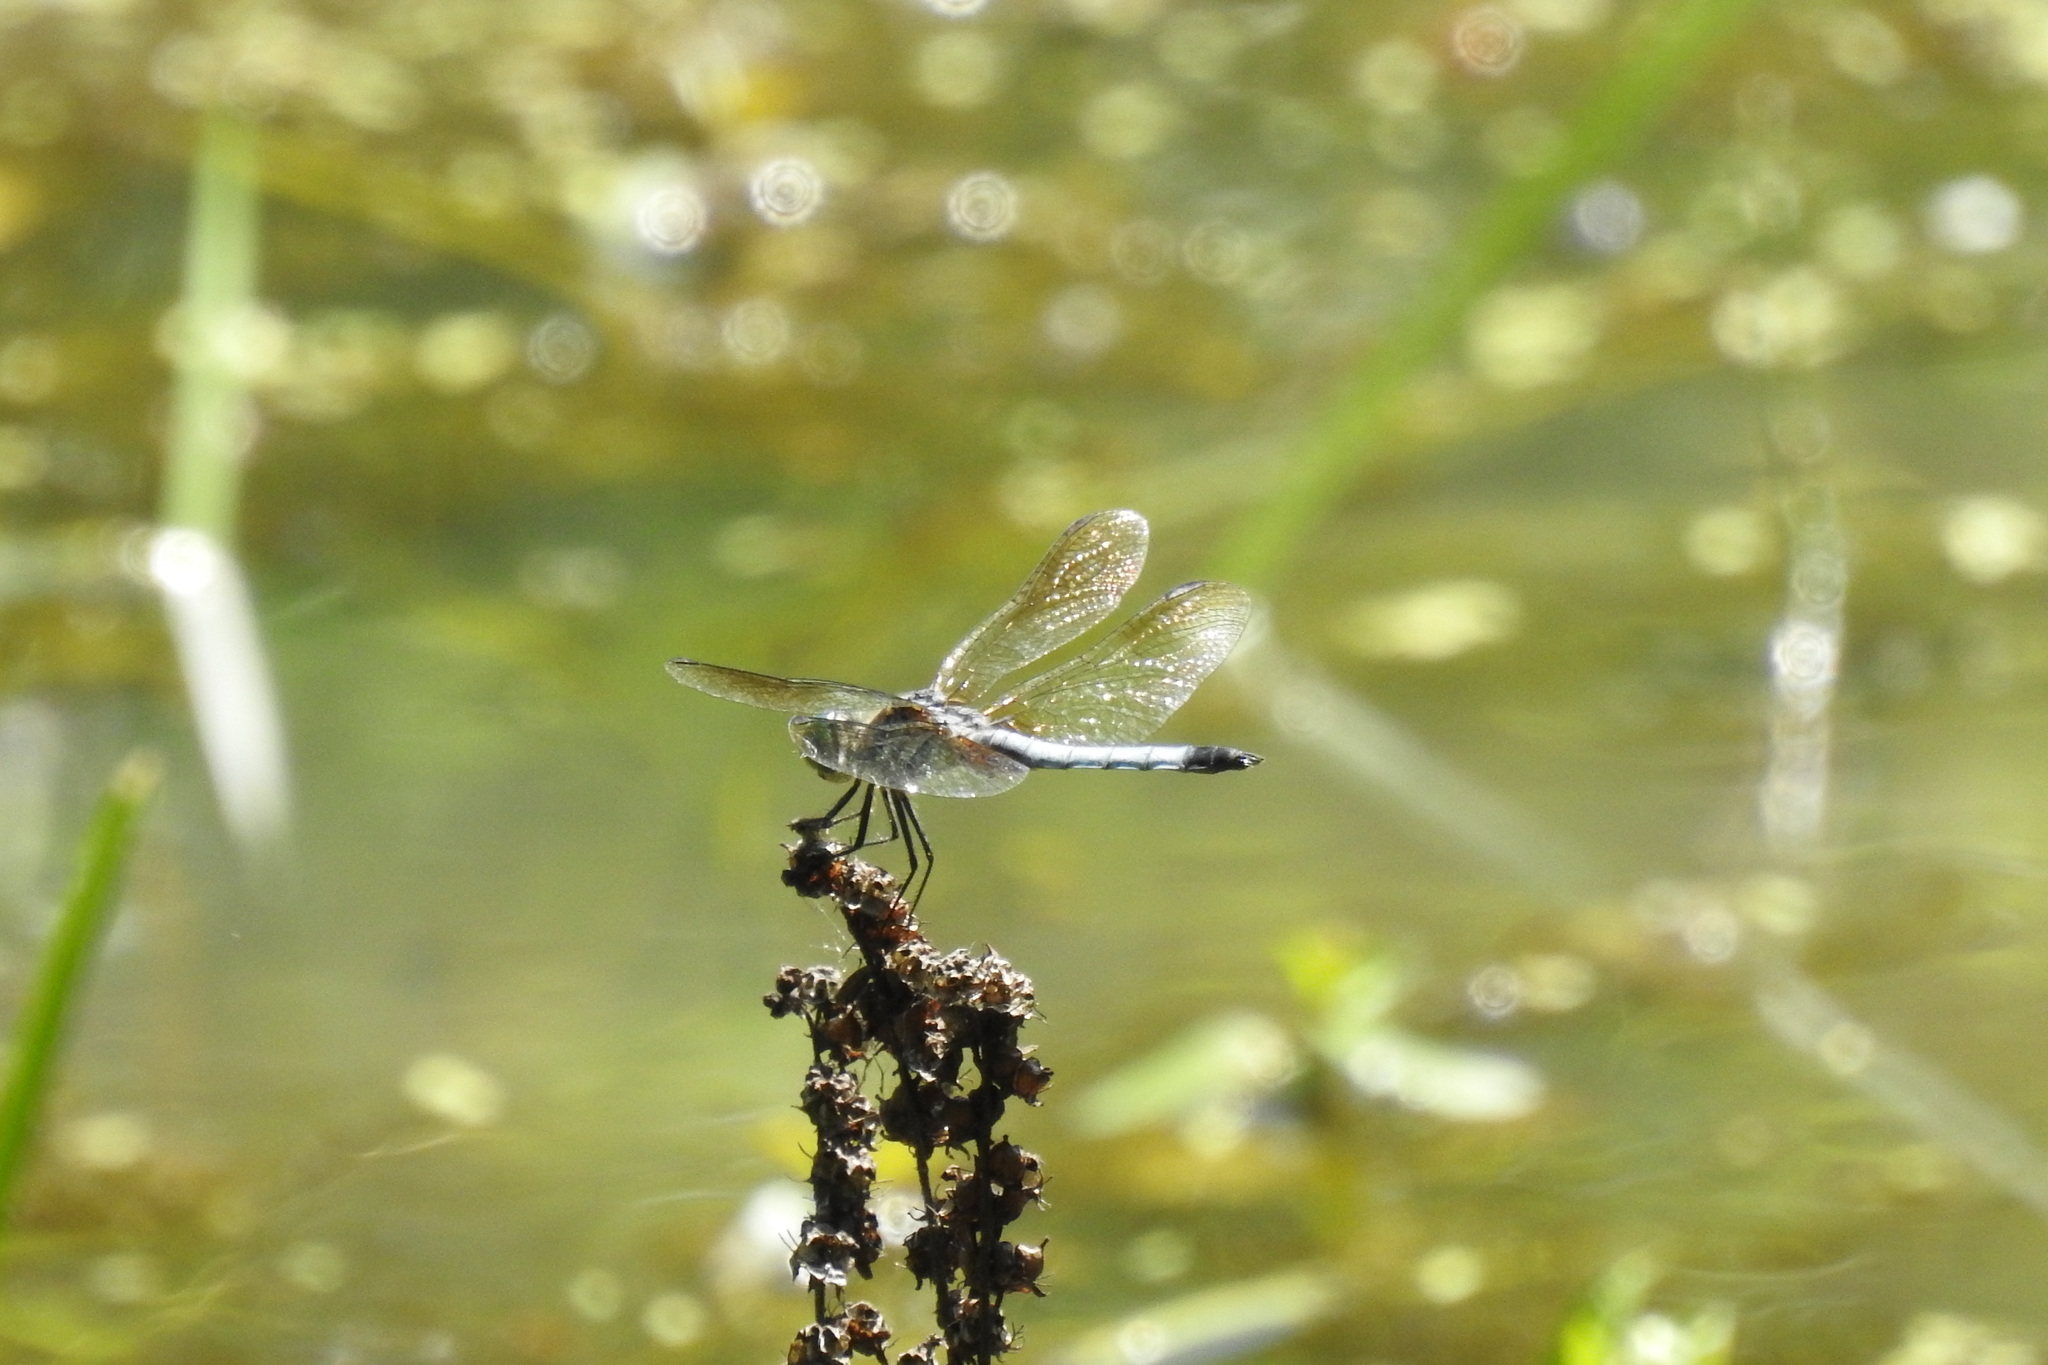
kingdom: Animalia
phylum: Arthropoda
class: Insecta
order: Odonata
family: Libellulidae
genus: Pachydiplax
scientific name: Pachydiplax longipennis
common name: Blue dasher
